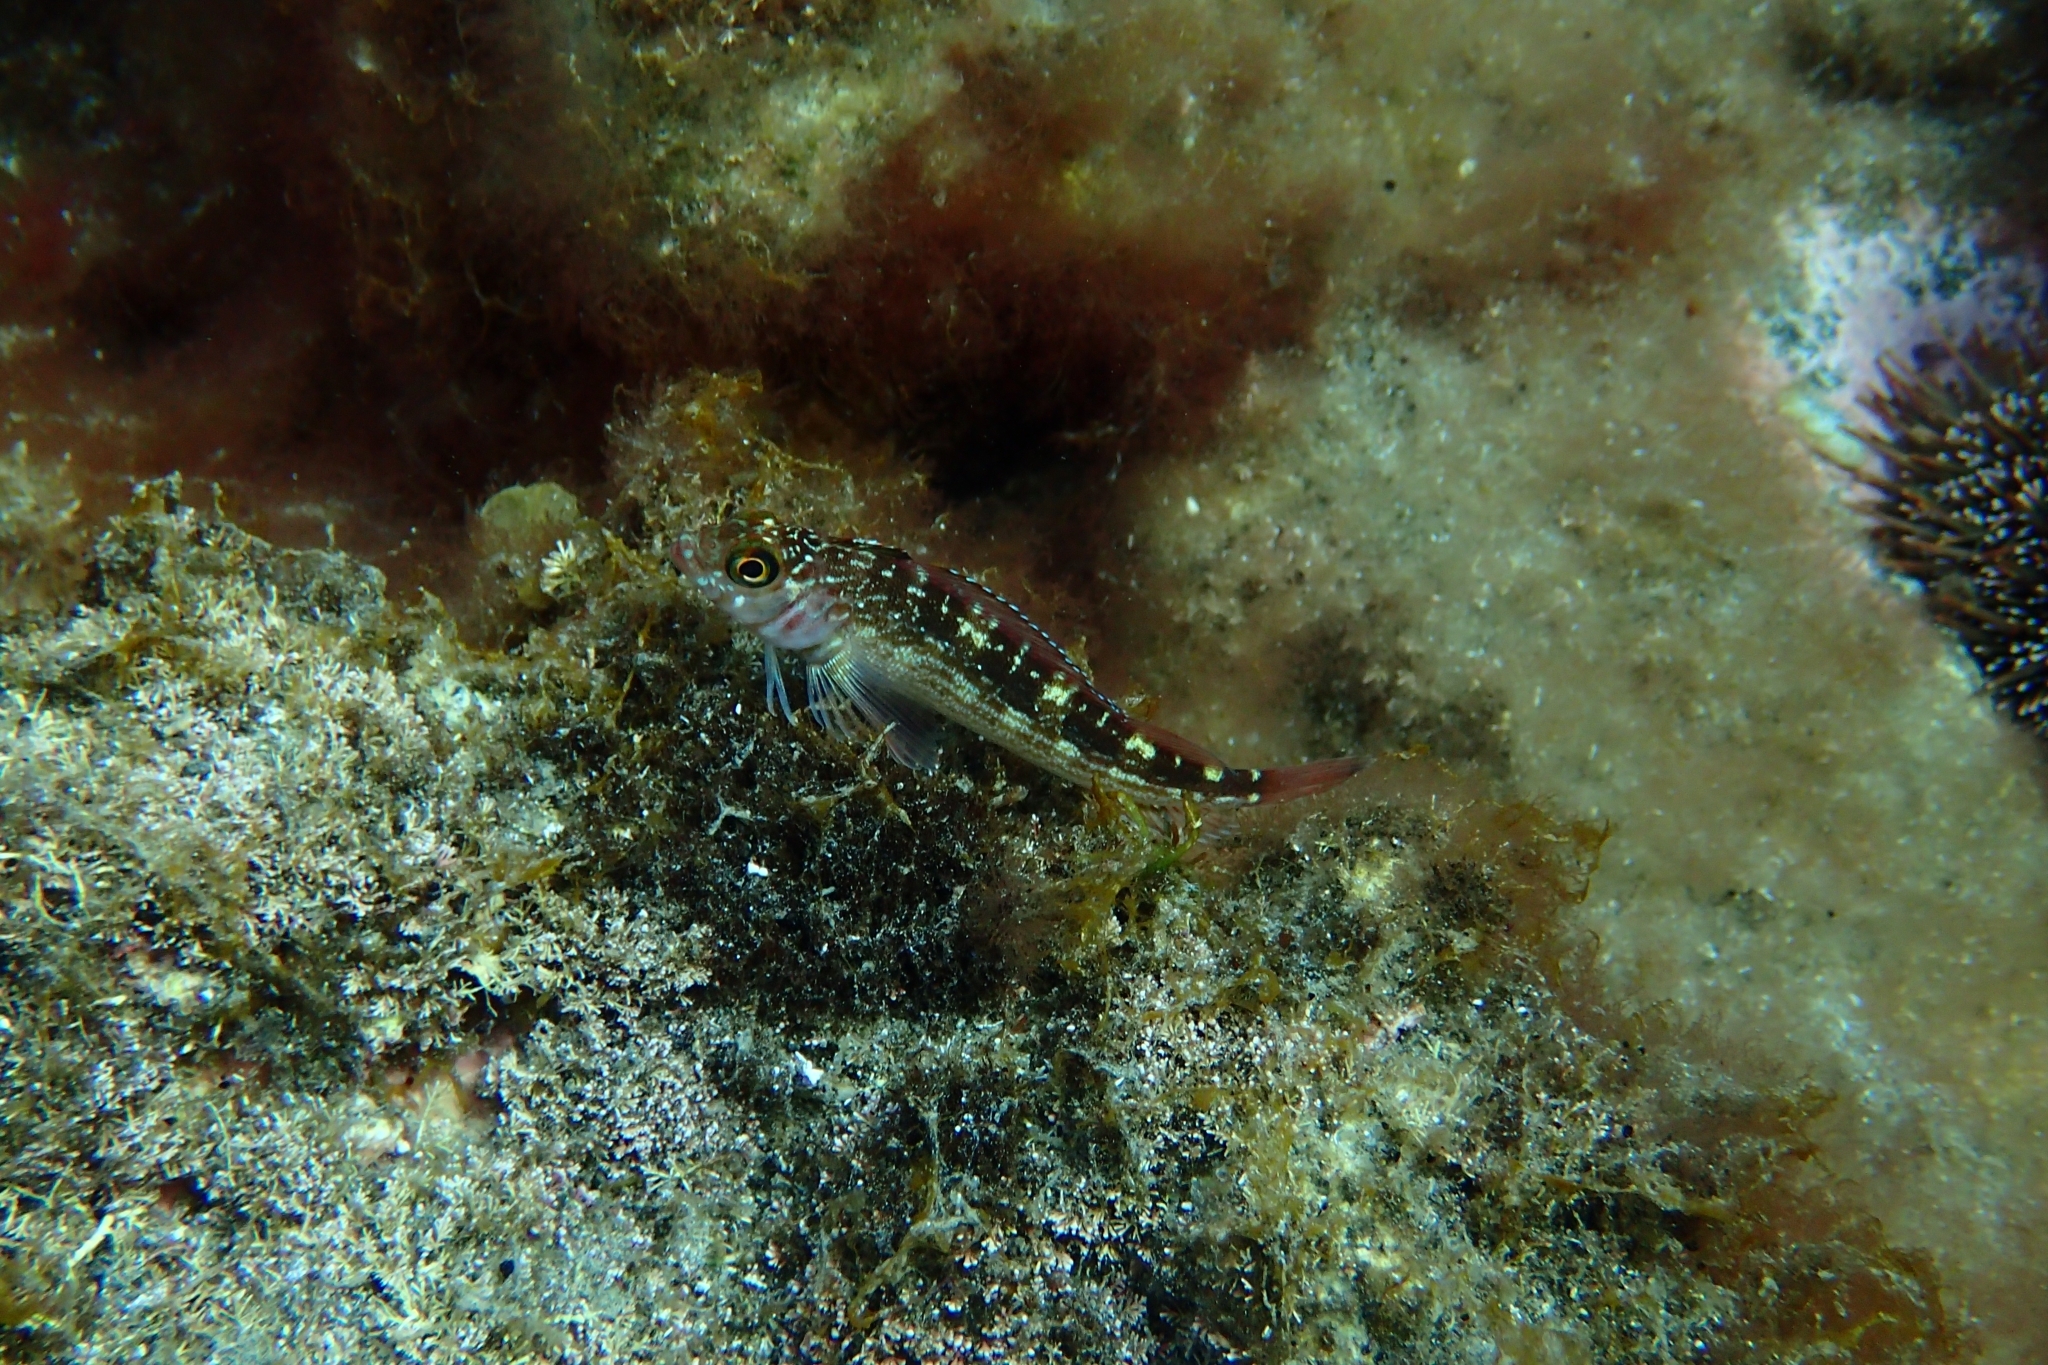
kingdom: Animalia
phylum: Chordata
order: Perciformes
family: Tripterygiidae
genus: Forsterygion
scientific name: Forsterygion varium
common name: Variable triplefin
